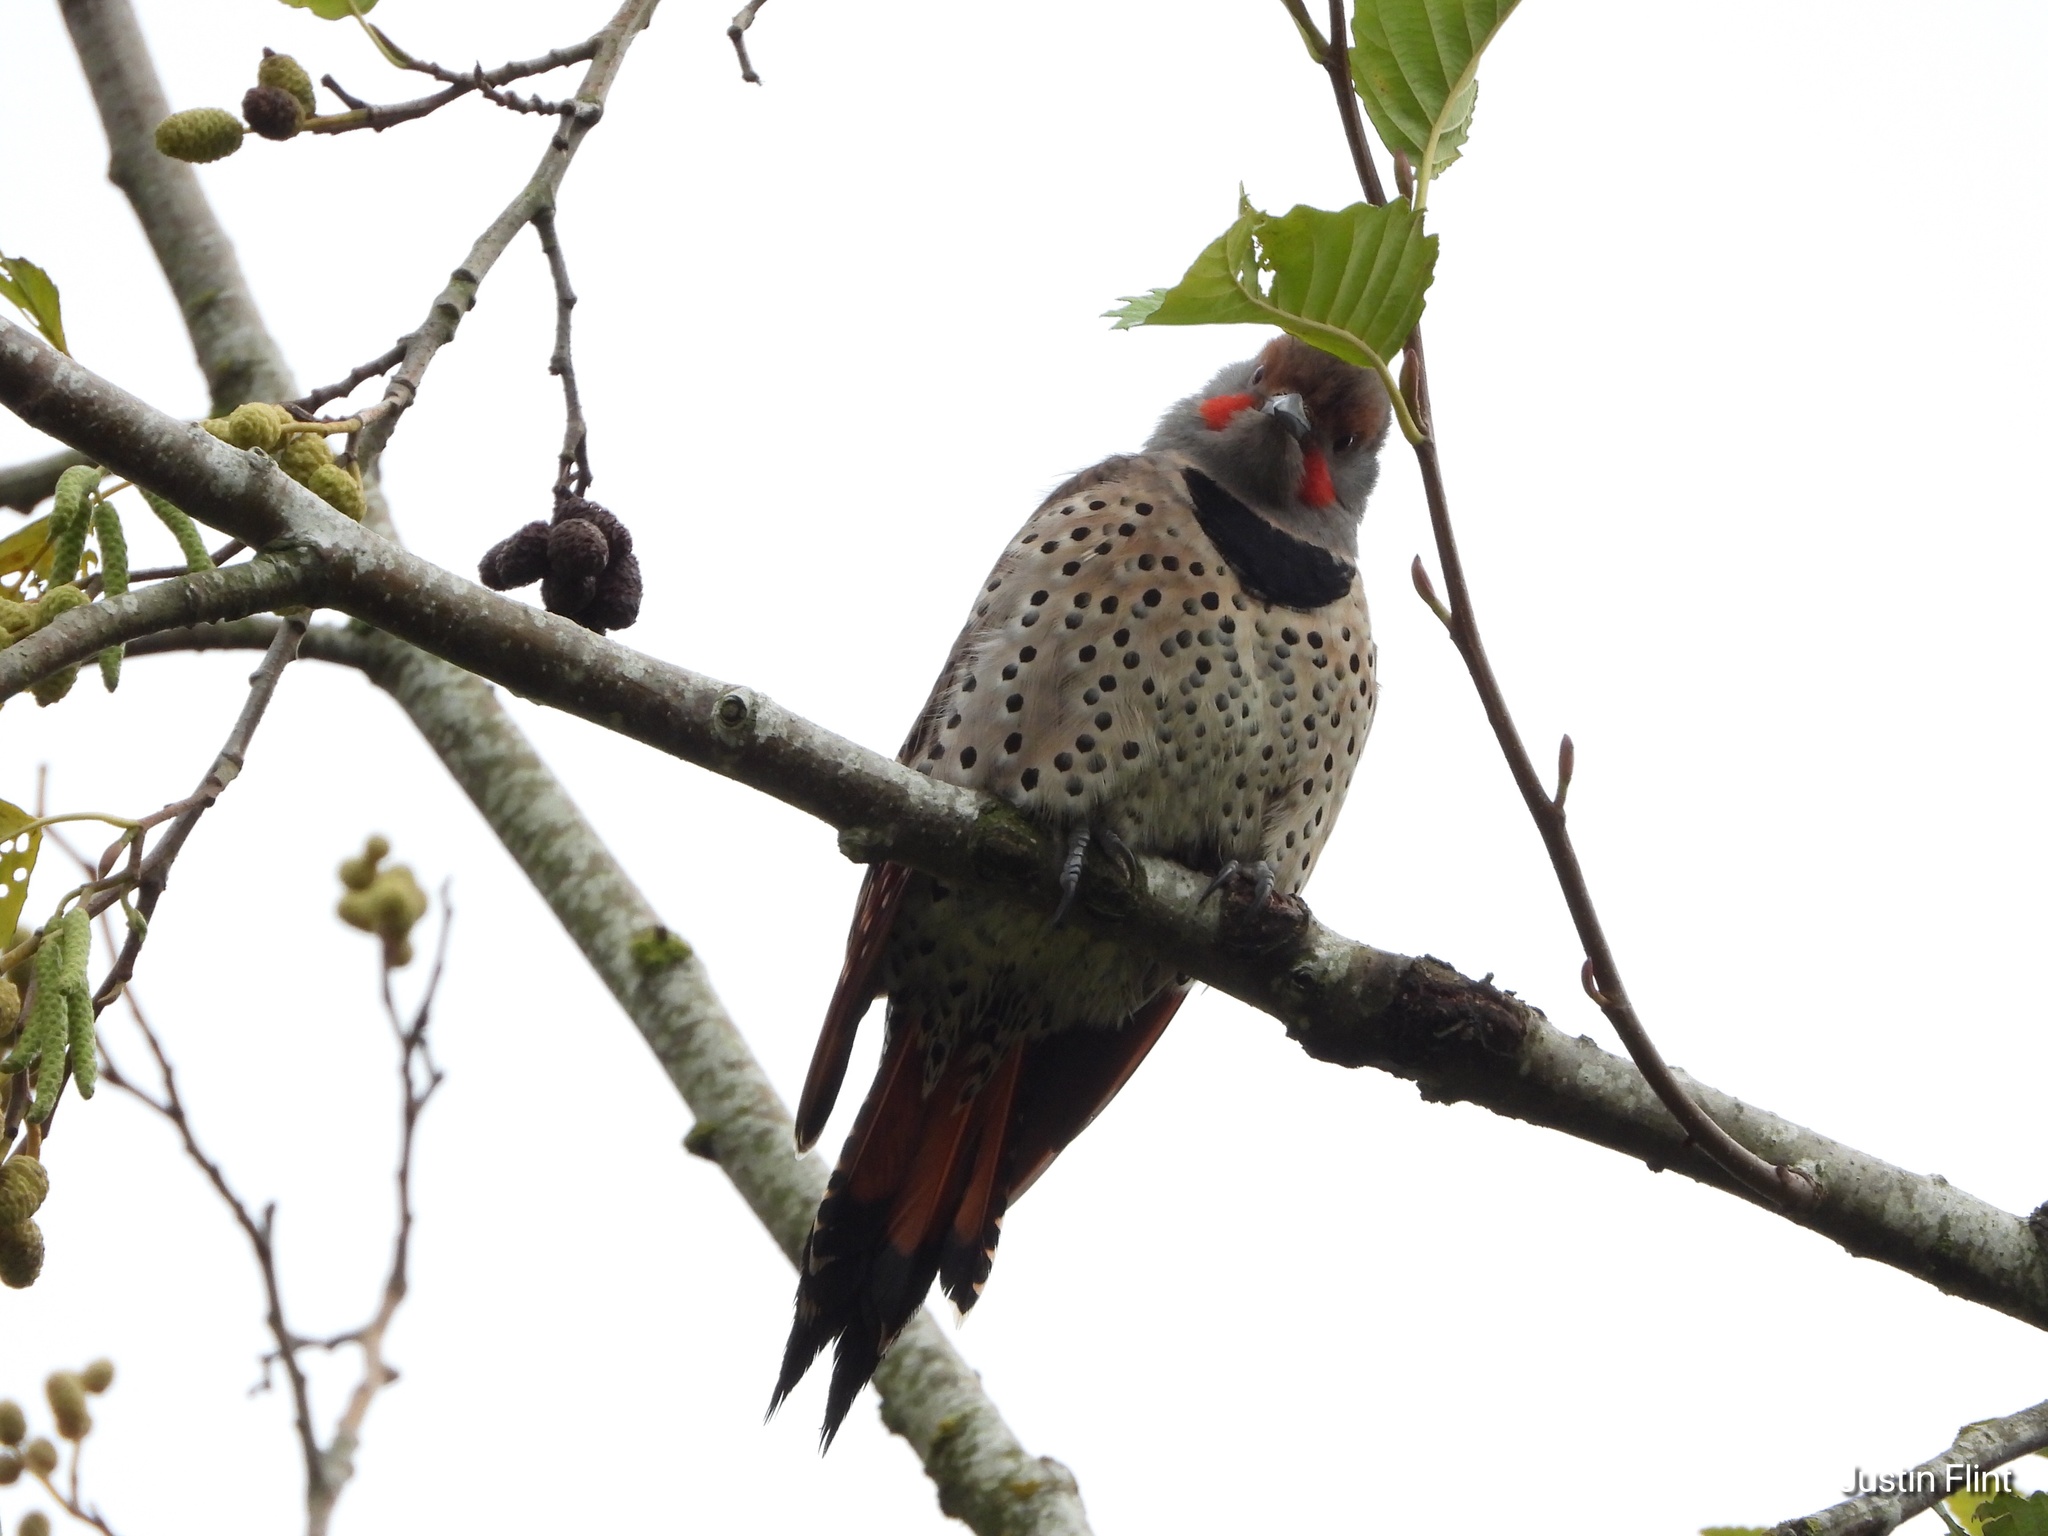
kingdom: Animalia
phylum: Chordata
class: Aves
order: Piciformes
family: Picidae
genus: Colaptes
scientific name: Colaptes
